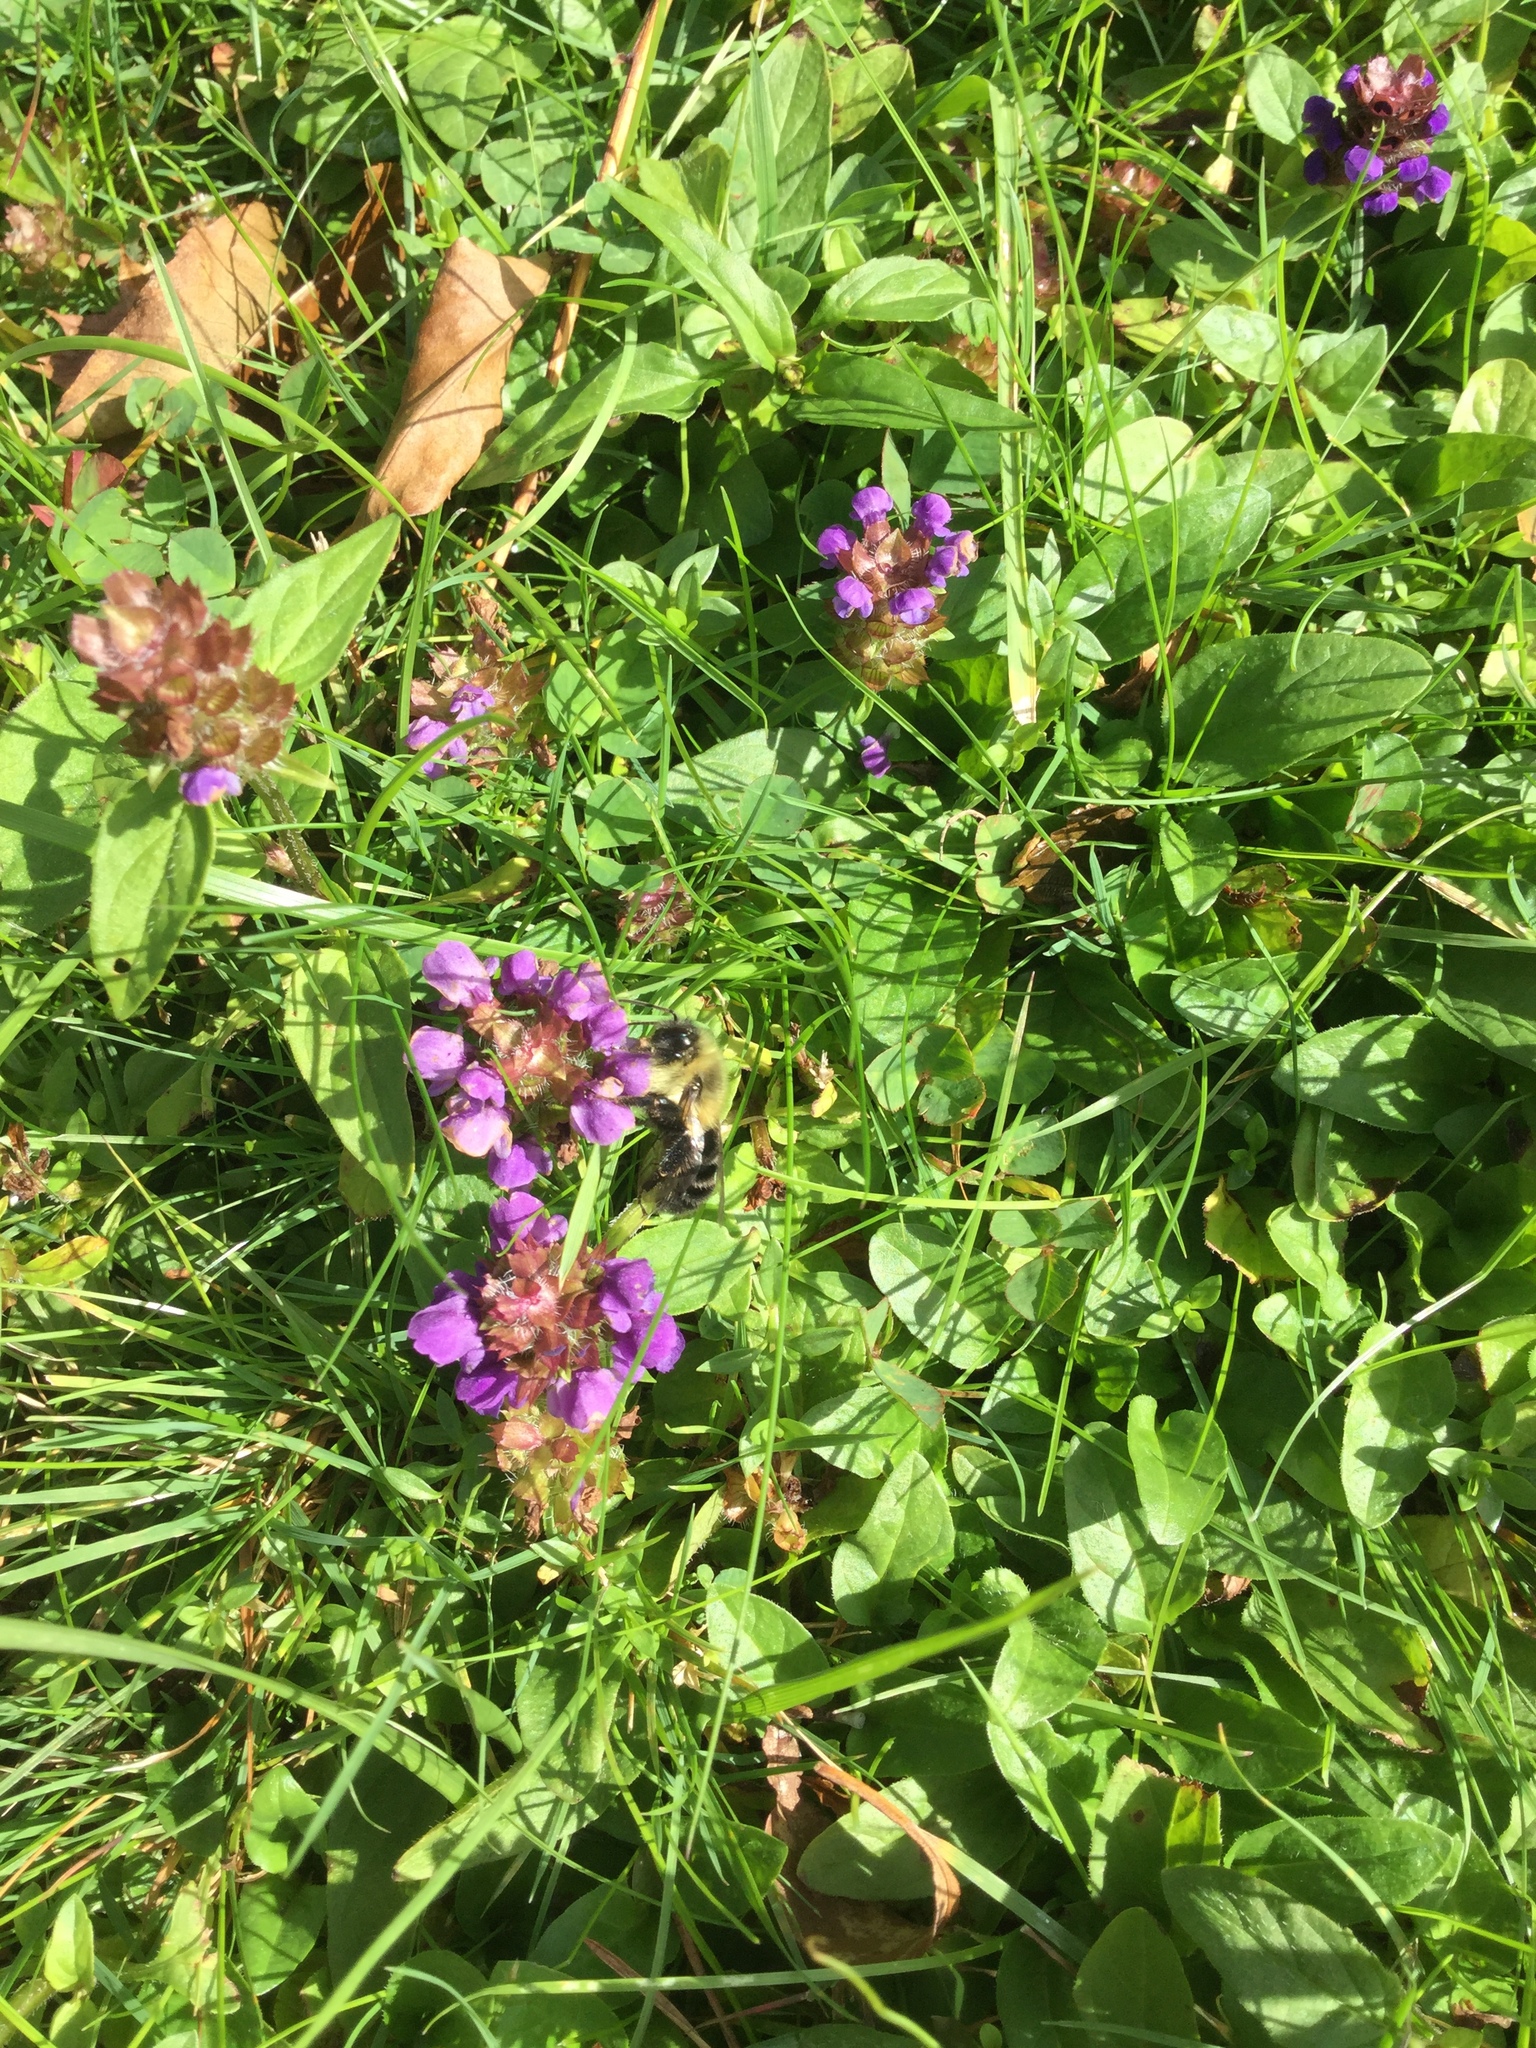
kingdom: Plantae
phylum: Tracheophyta
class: Magnoliopsida
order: Lamiales
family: Lamiaceae
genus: Prunella
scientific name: Prunella vulgaris
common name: Heal-all
